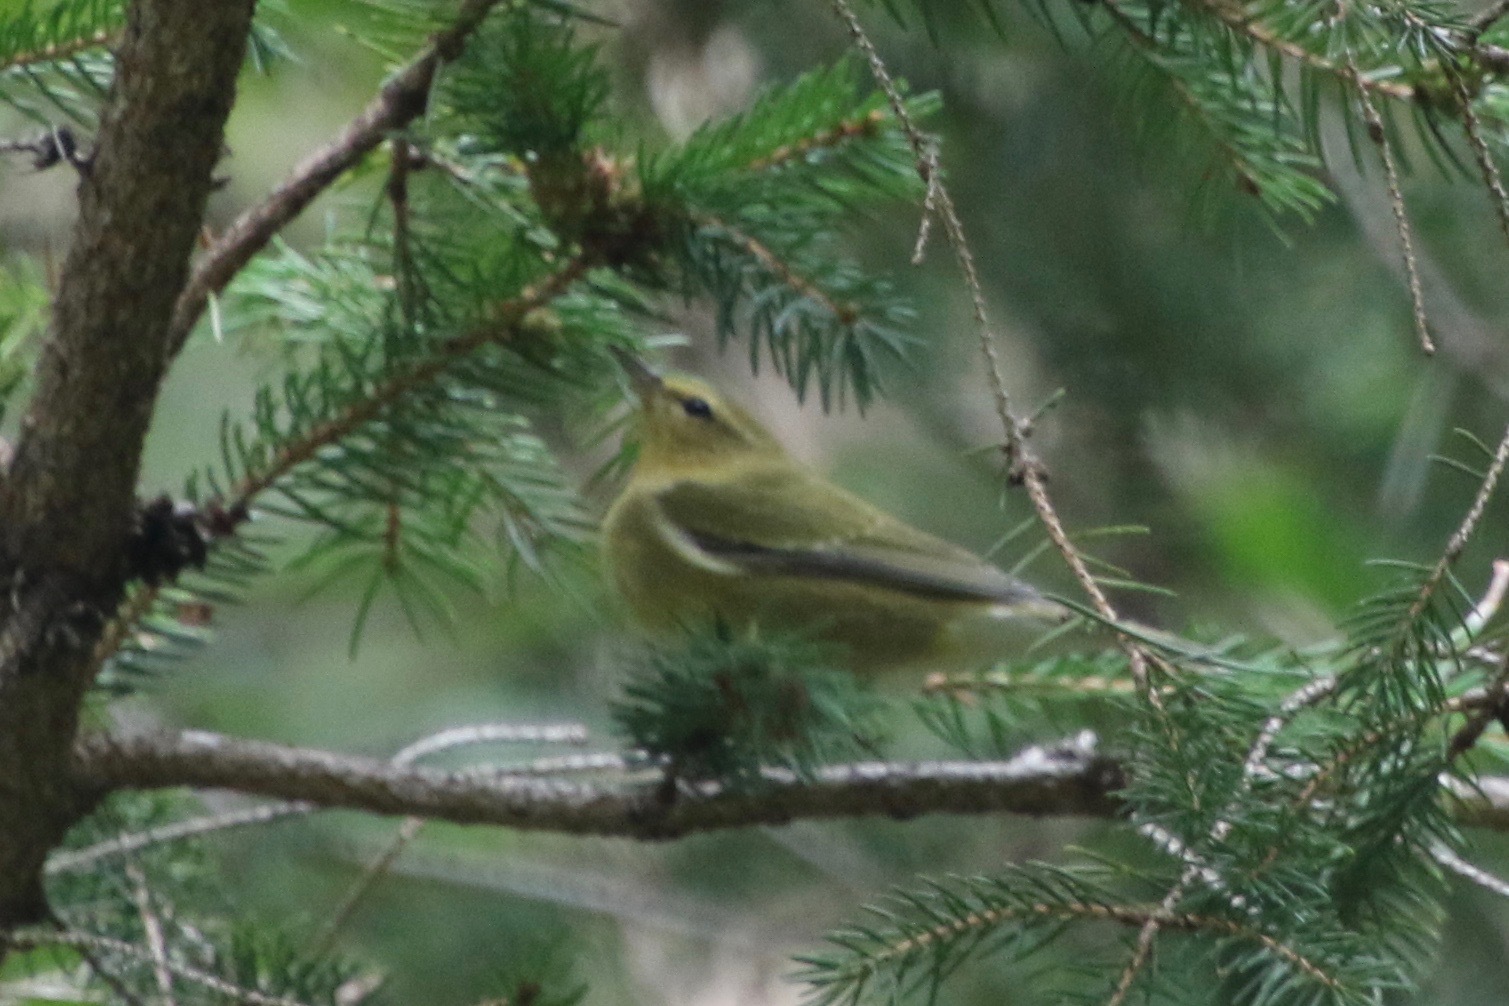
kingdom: Animalia
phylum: Chordata
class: Aves
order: Passeriformes
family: Parulidae
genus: Leiothlypis
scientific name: Leiothlypis peregrina
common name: Tennessee warbler
